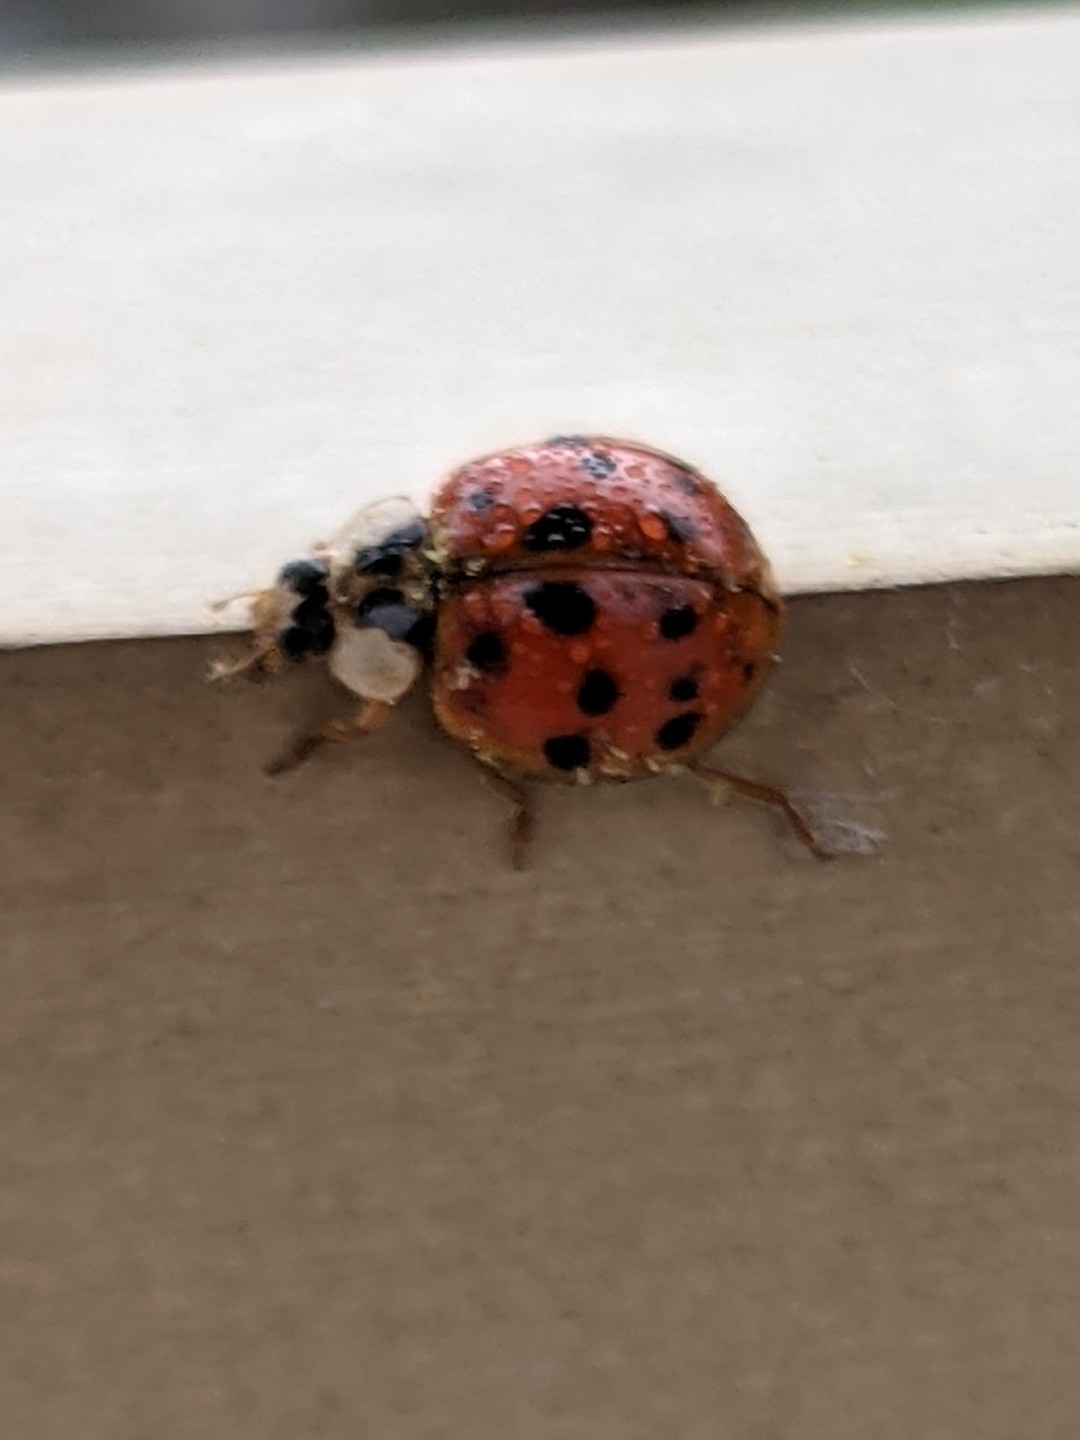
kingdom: Animalia
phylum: Arthropoda
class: Insecta
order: Coleoptera
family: Coccinellidae
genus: Harmonia
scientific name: Harmonia axyridis
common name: Harlequin ladybird
